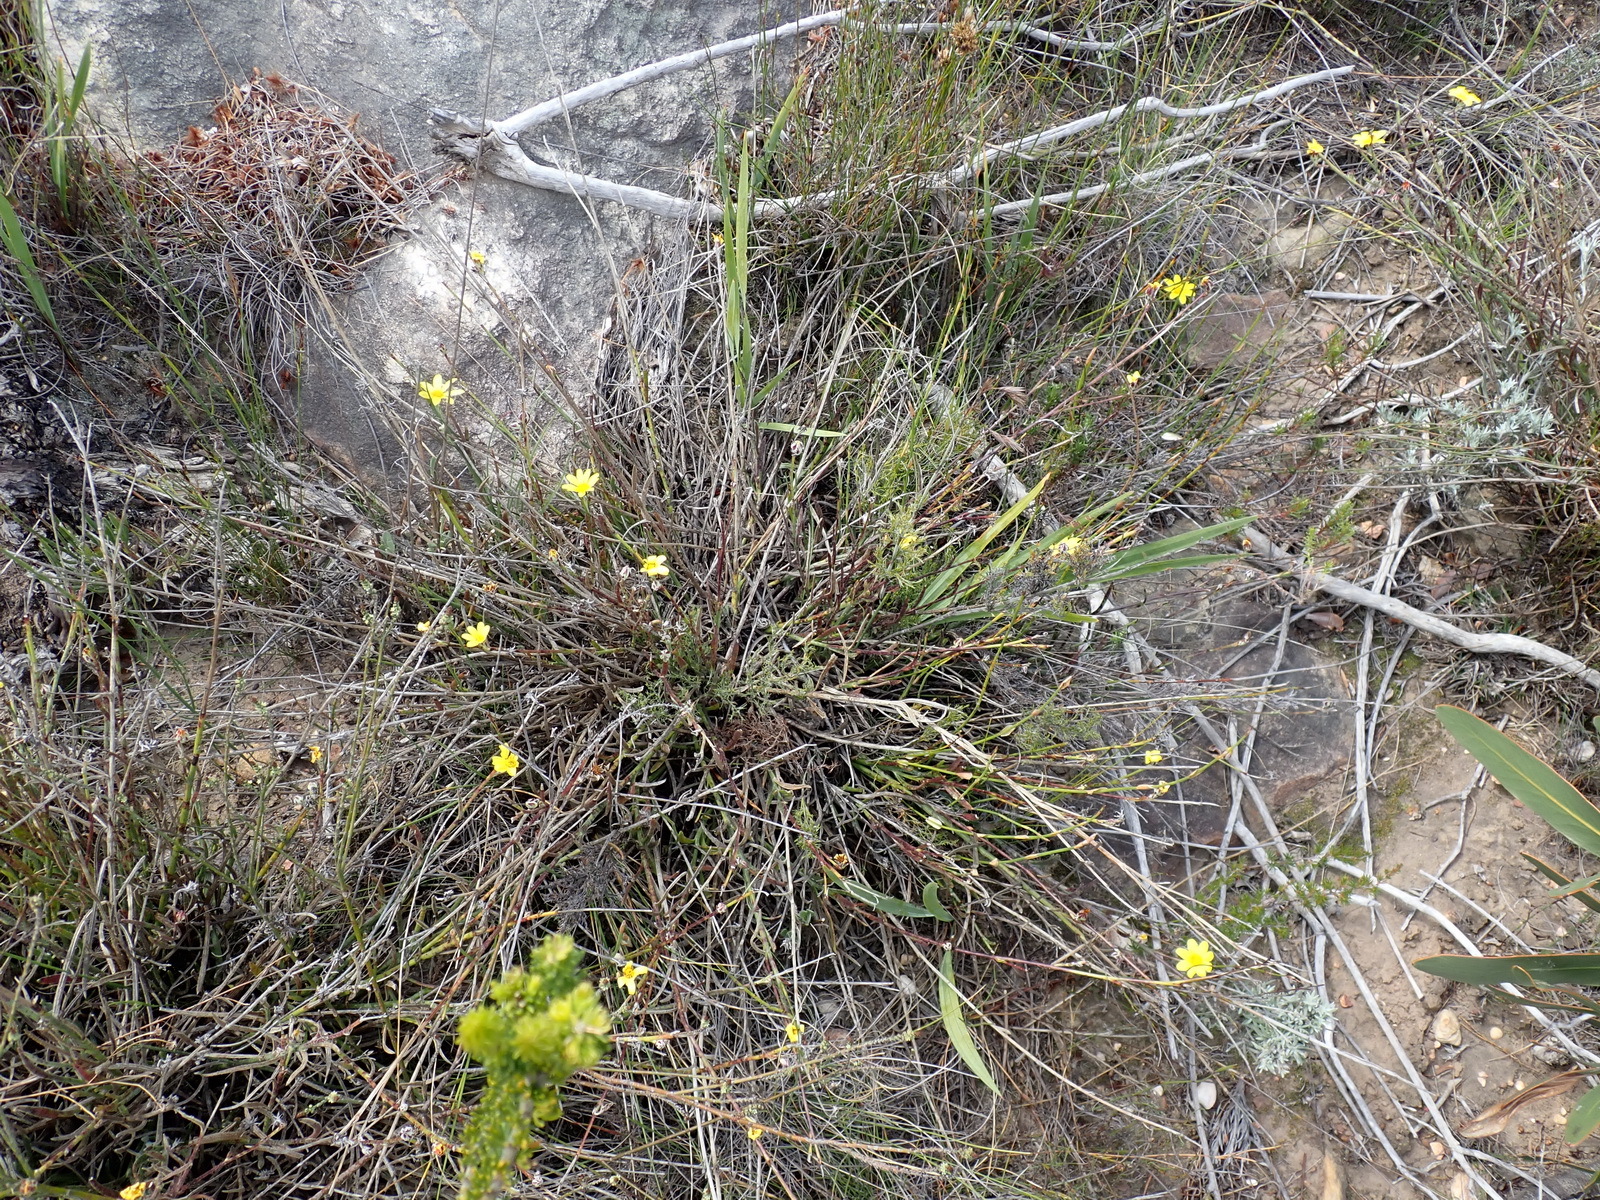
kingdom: Plantae
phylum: Tracheophyta
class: Magnoliopsida
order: Asterales
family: Asteraceae
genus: Osteospermum
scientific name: Osteospermum asperulum
